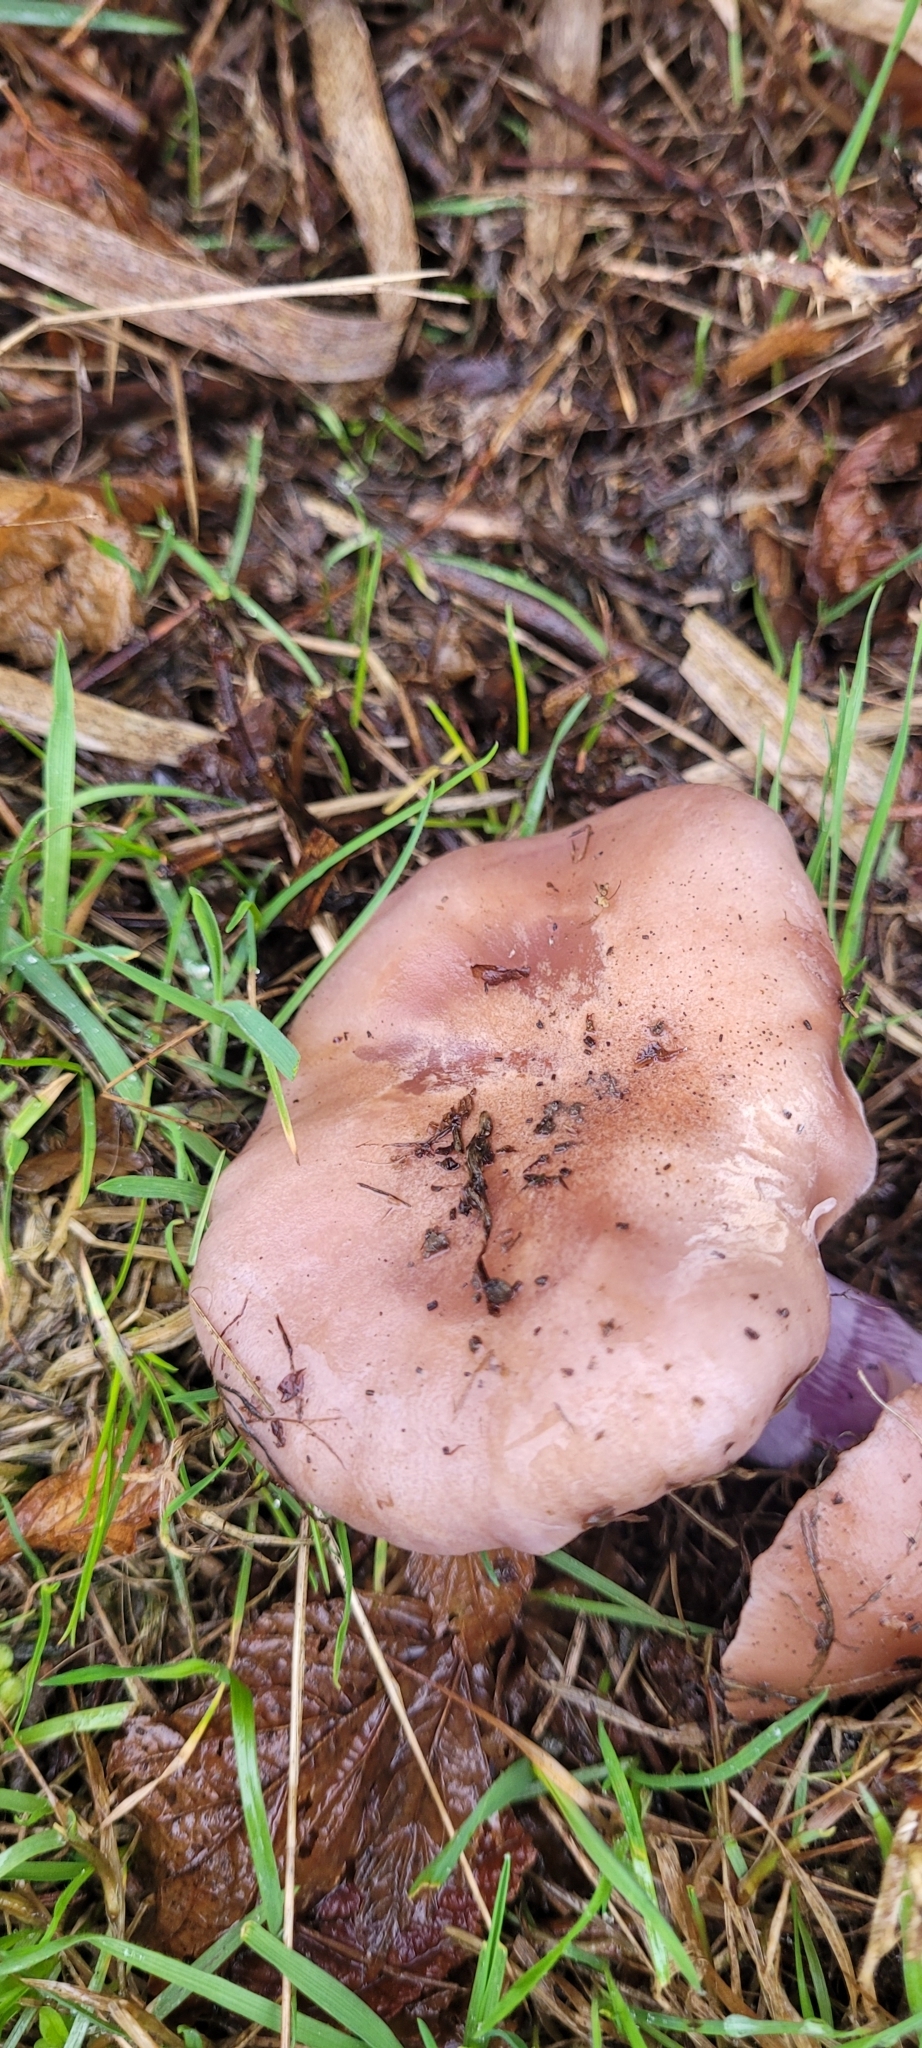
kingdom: Fungi
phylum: Basidiomycota
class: Agaricomycetes
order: Agaricales
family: Tricholomataceae
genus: Collybia
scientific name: Collybia
